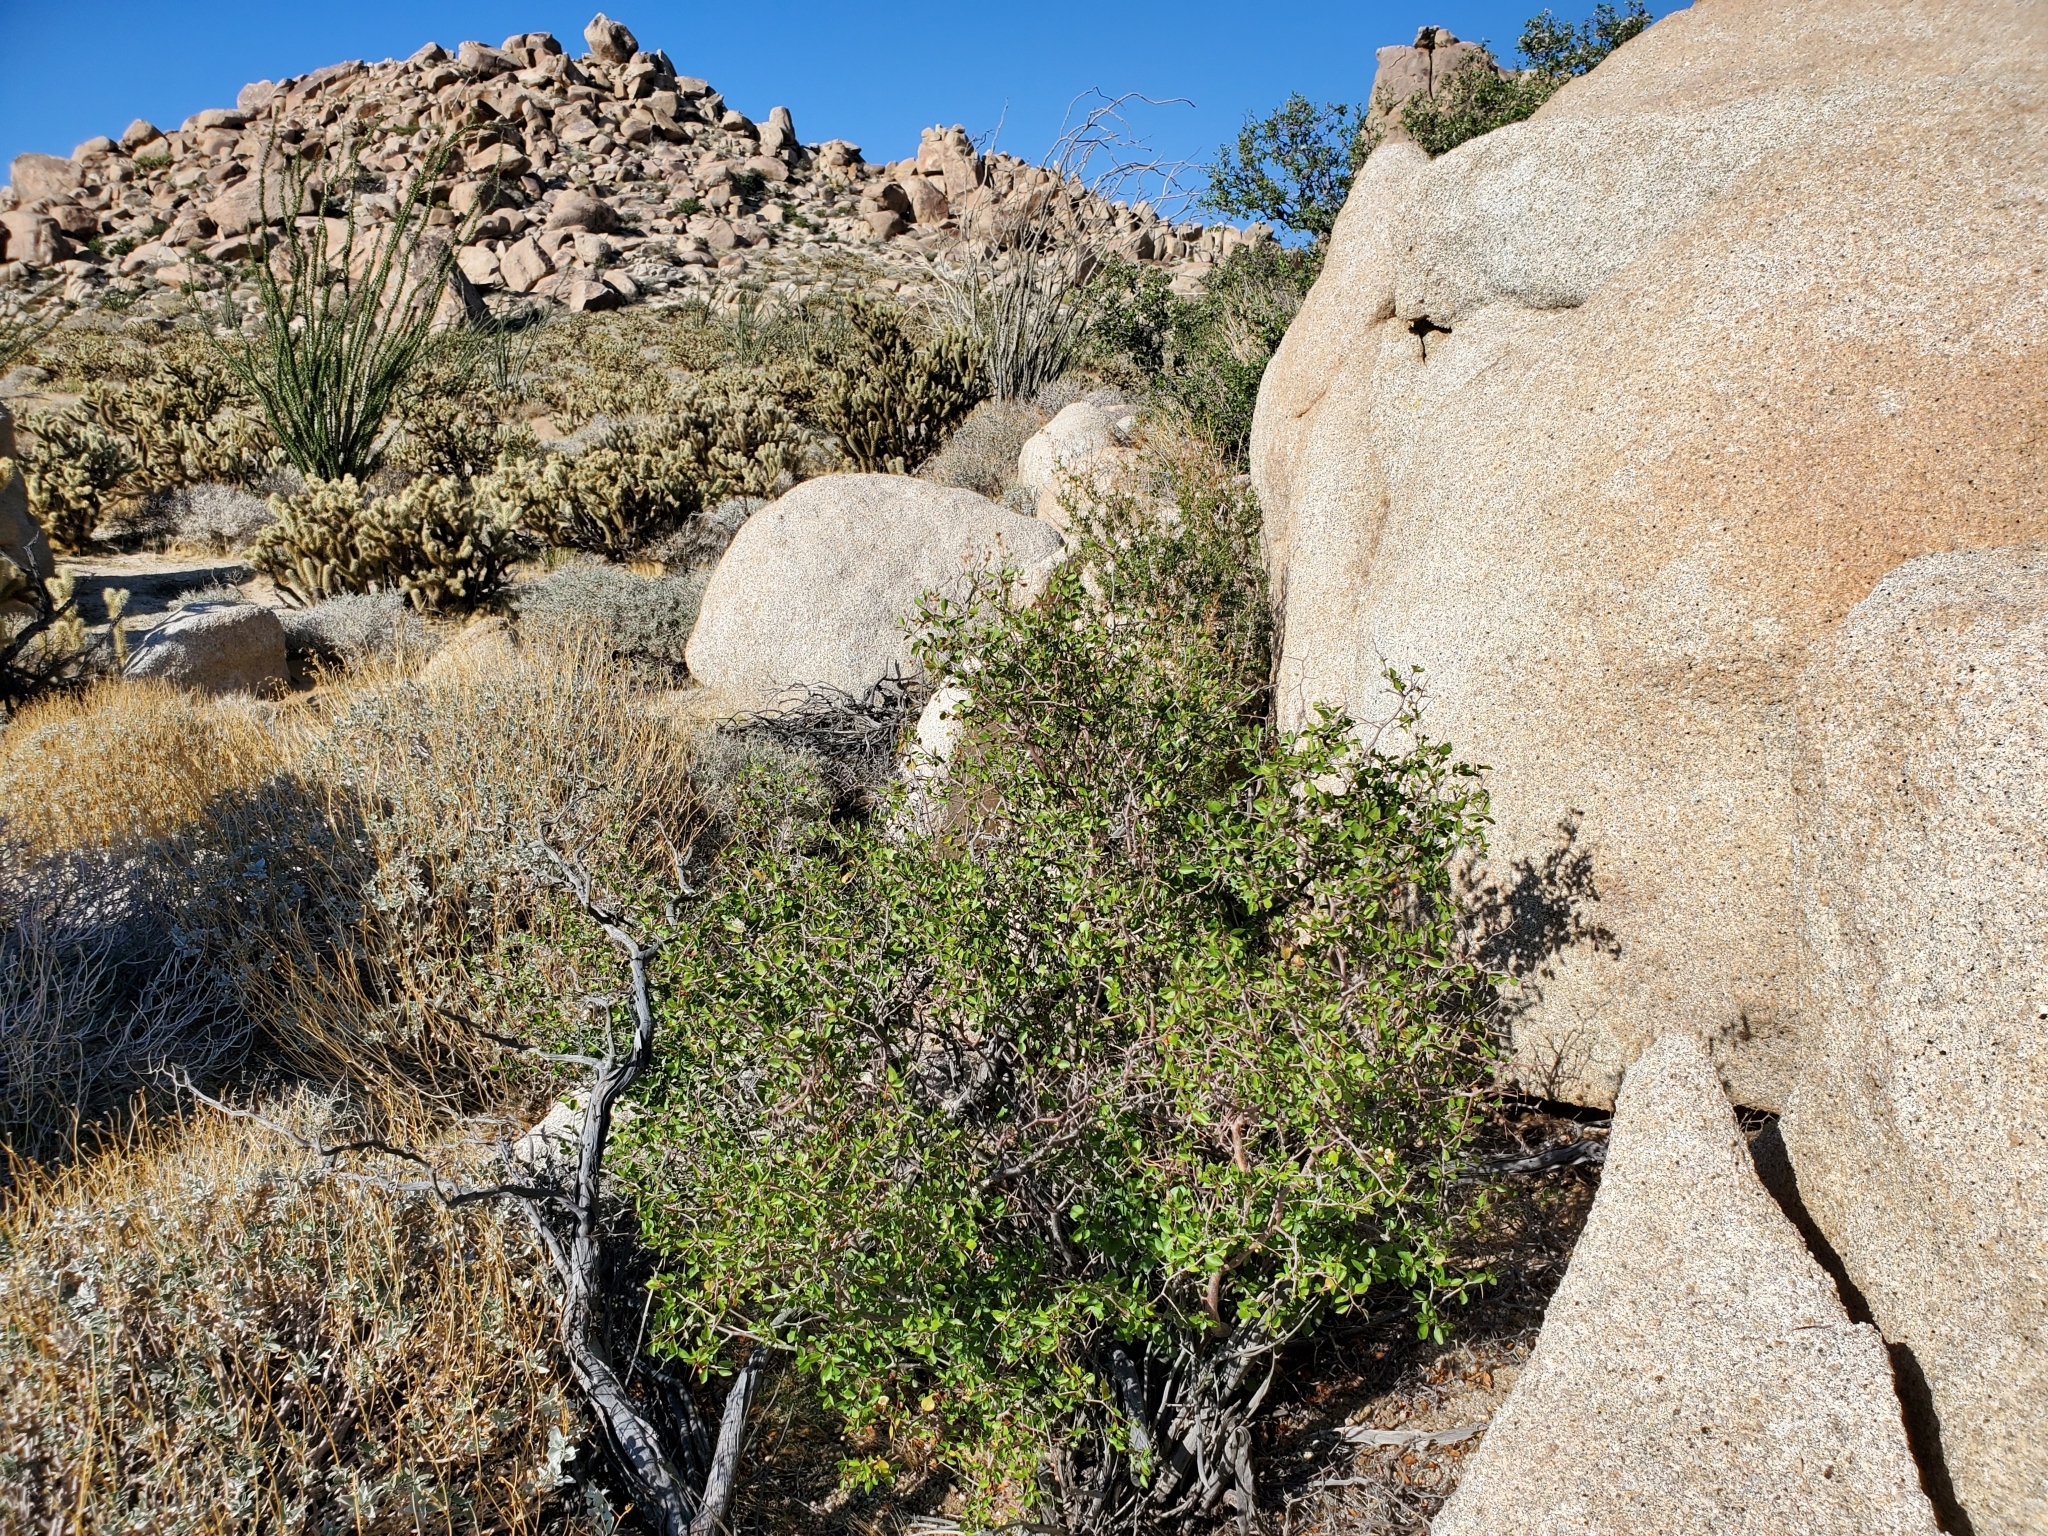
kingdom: Plantae
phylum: Tracheophyta
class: Magnoliopsida
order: Rosales
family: Rosaceae
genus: Prunus
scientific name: Prunus fremontii
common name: Desert apricot
